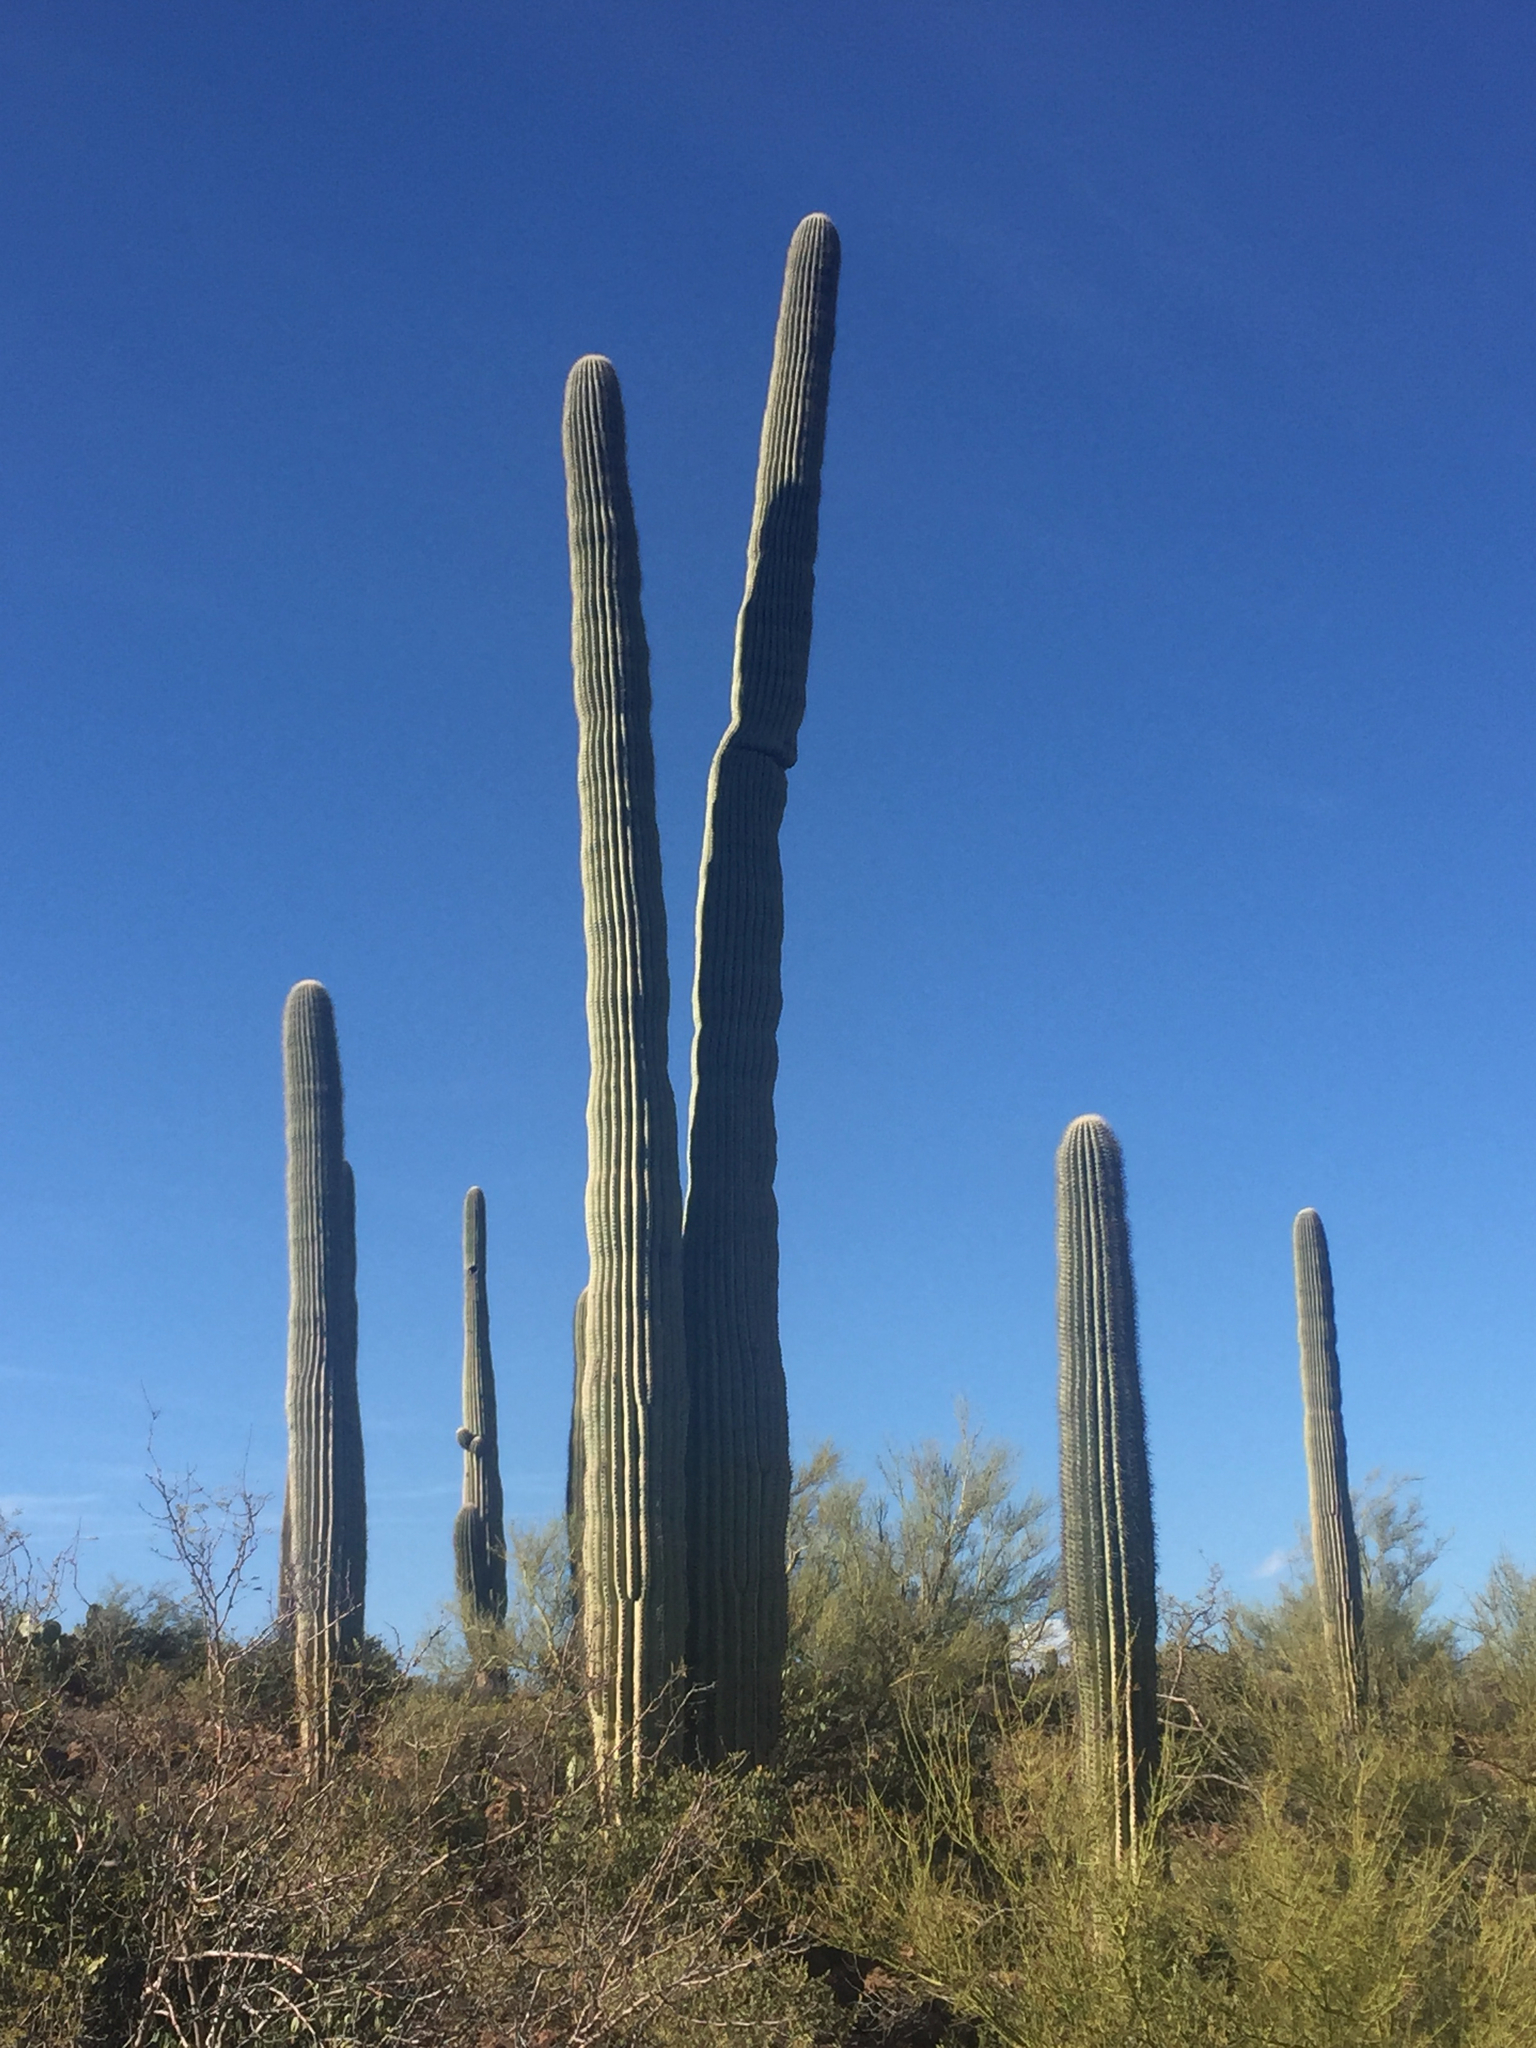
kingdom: Plantae
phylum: Tracheophyta
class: Magnoliopsida
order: Caryophyllales
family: Cactaceae
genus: Carnegiea
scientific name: Carnegiea gigantea
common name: Saguaro
